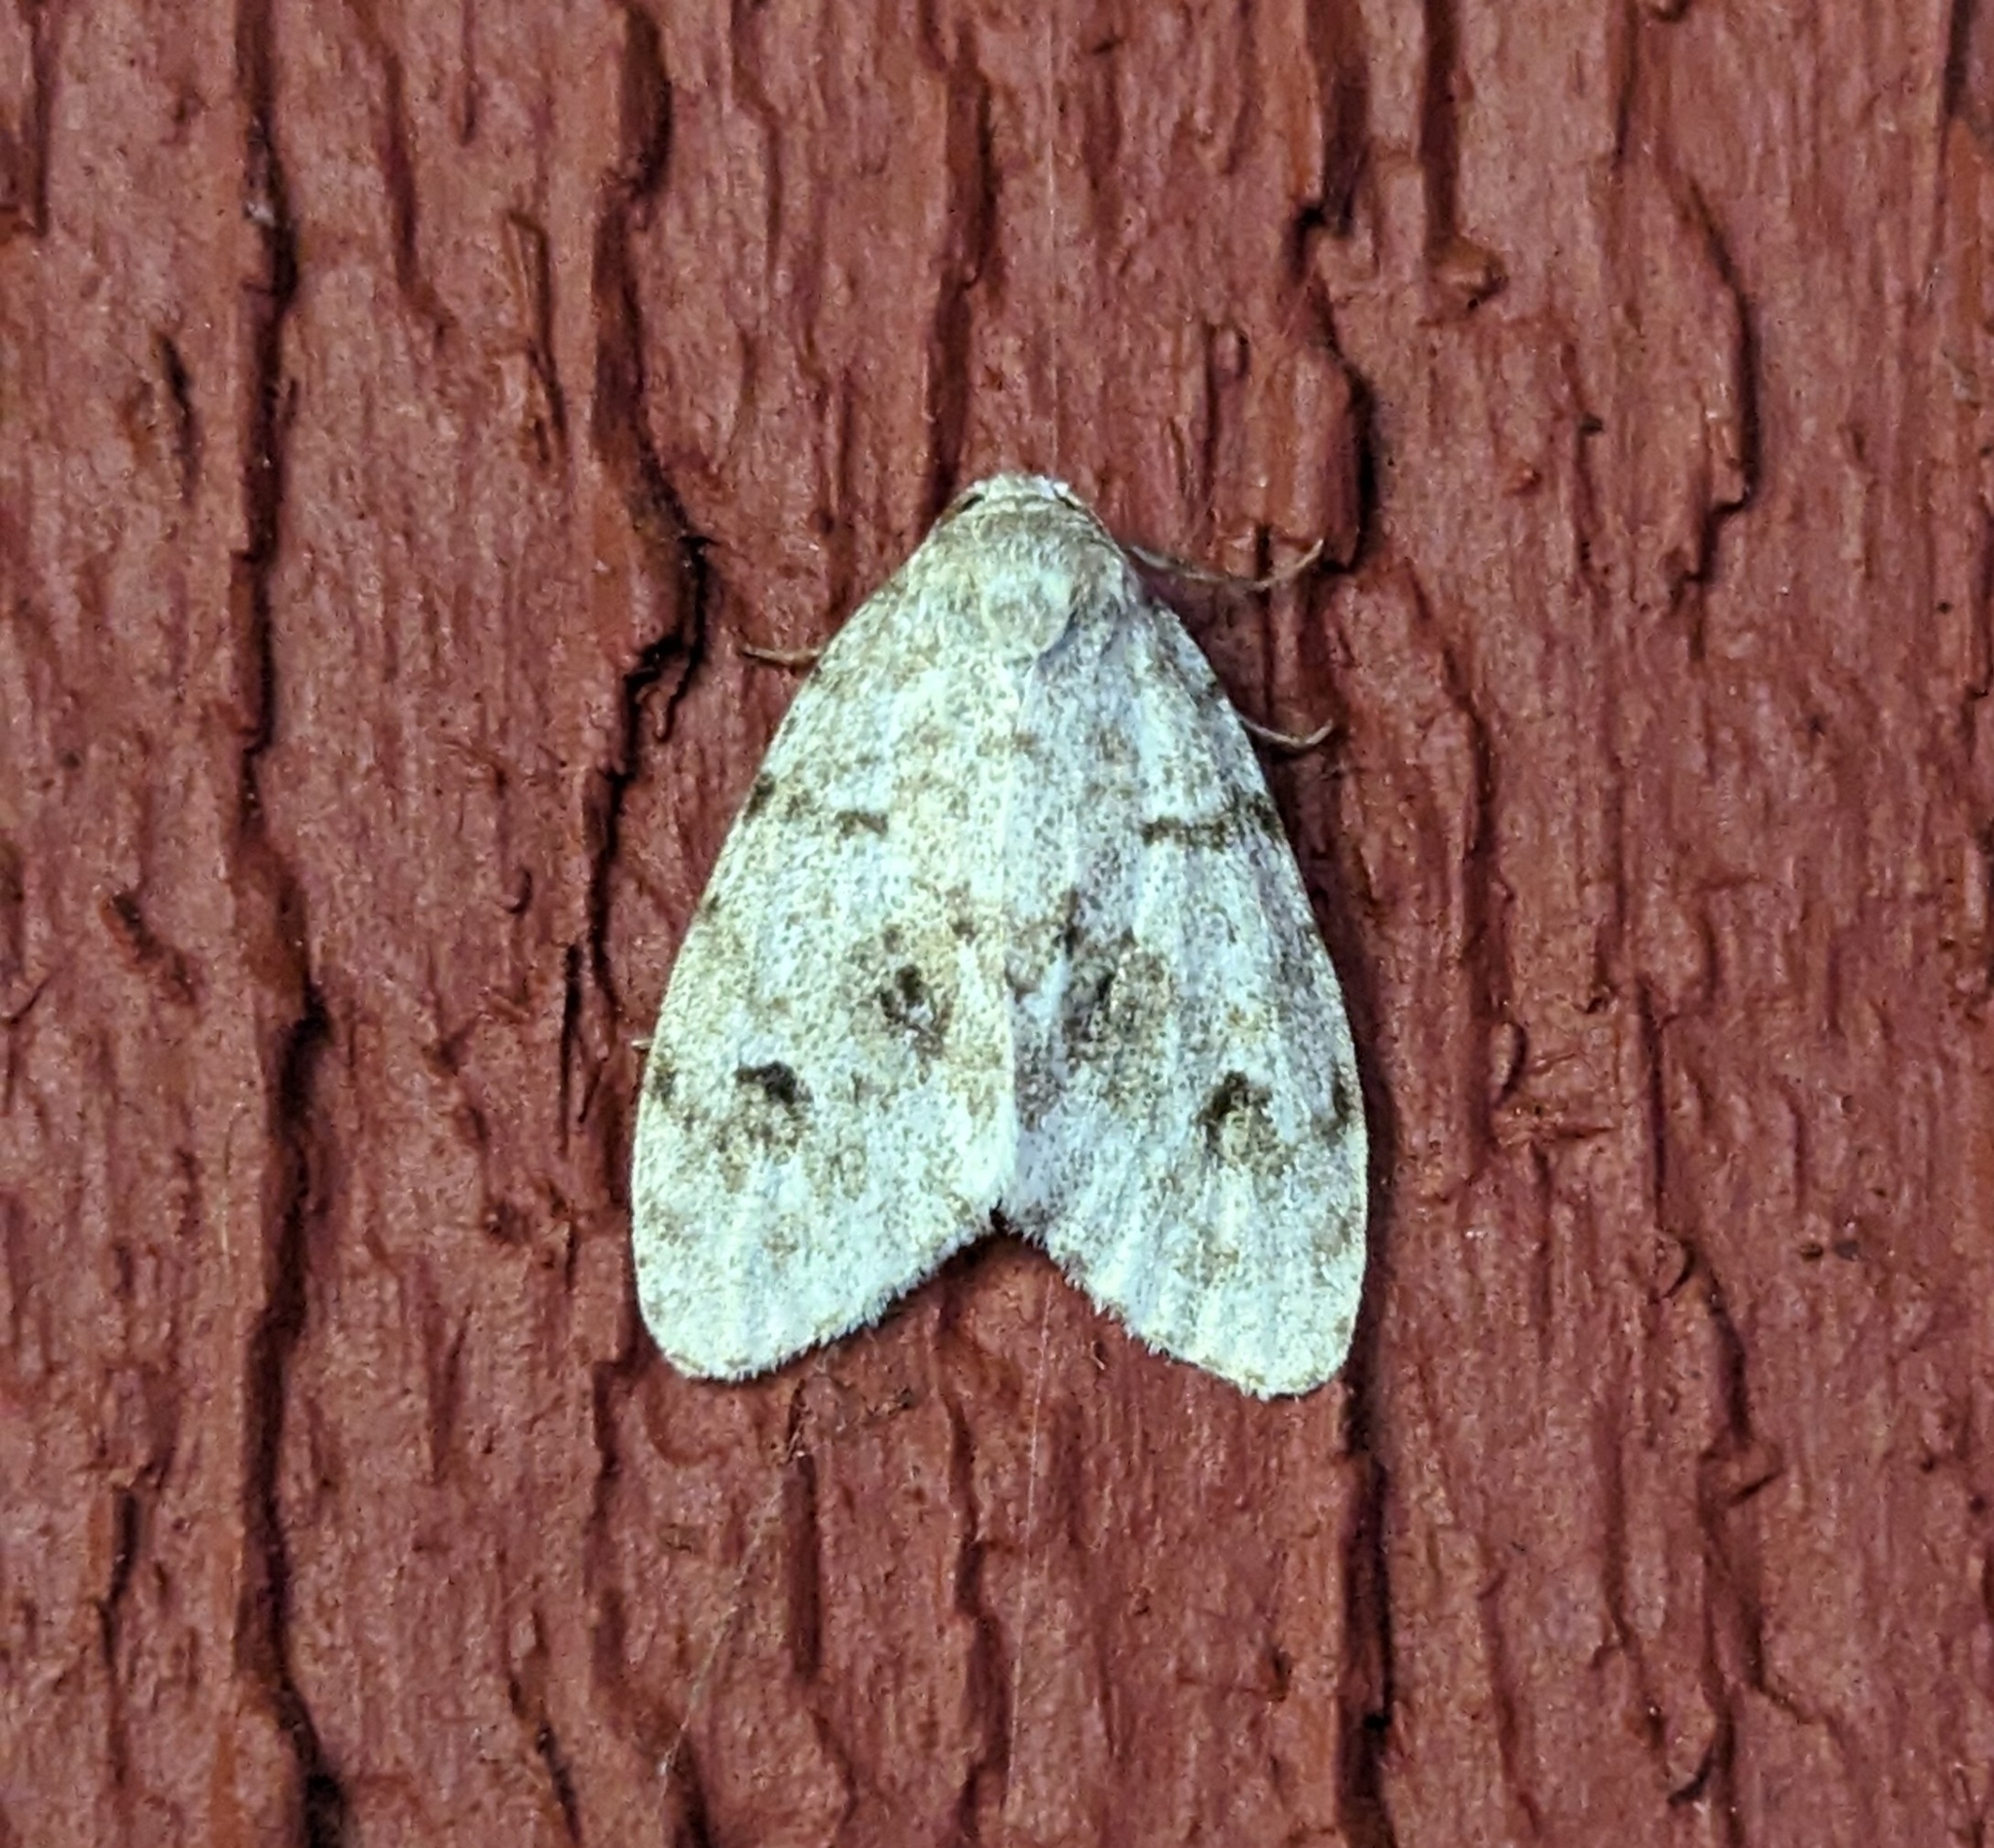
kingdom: Animalia
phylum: Arthropoda
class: Insecta
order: Lepidoptera
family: Erebidae
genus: Clemensia
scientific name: Clemensia umbrata
